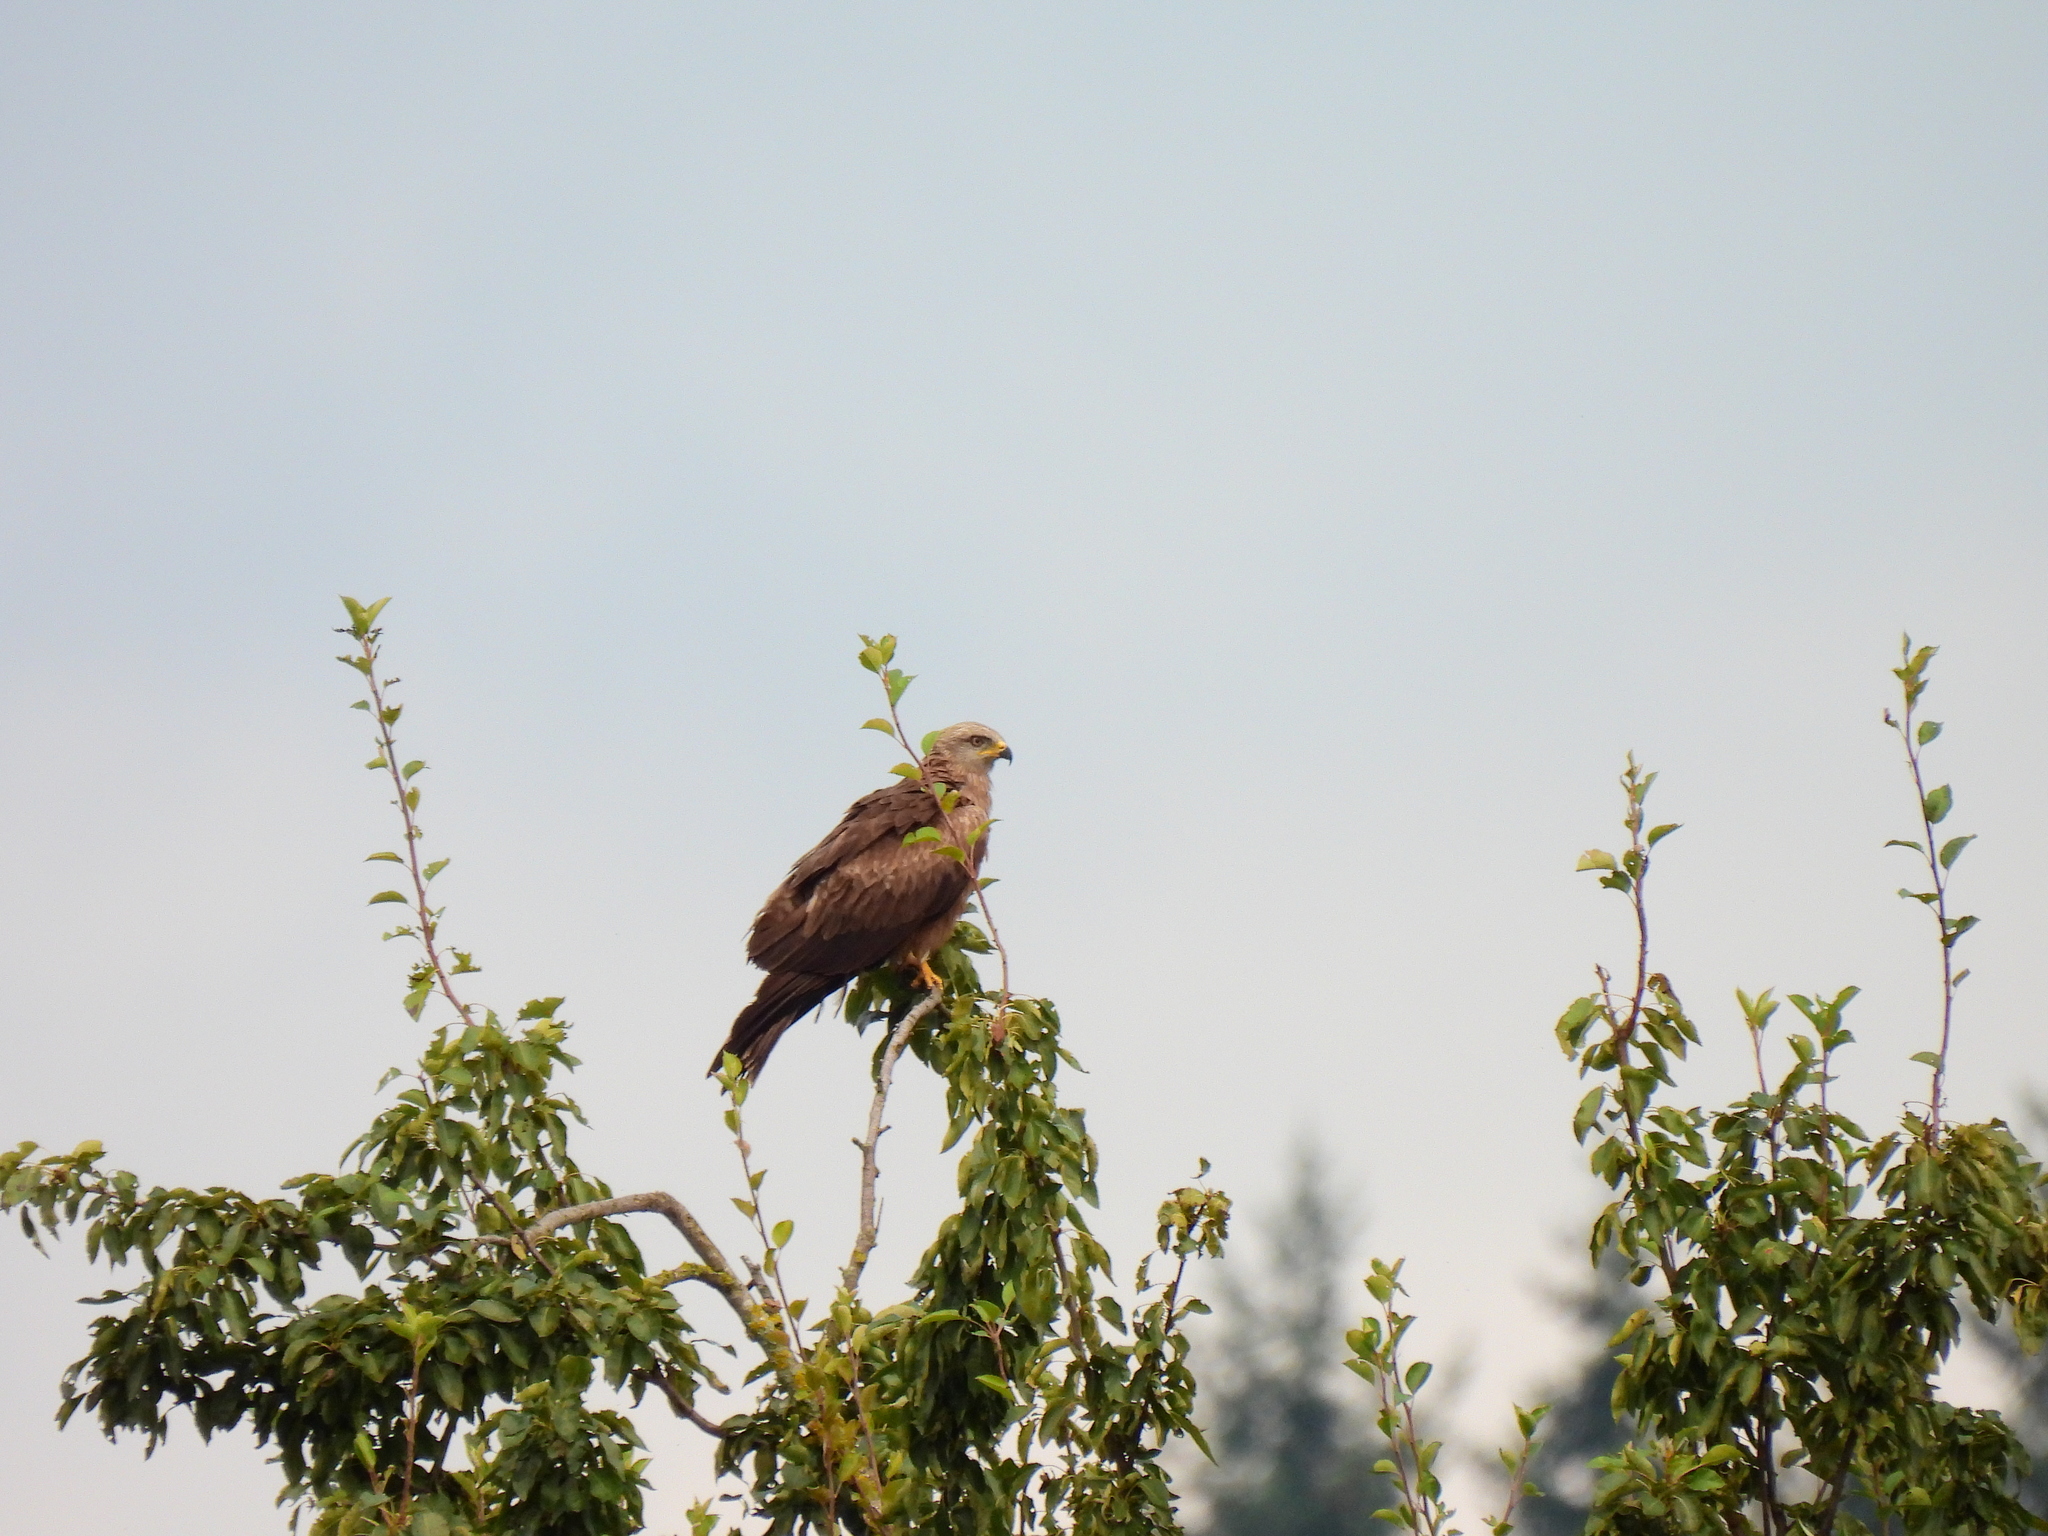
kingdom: Animalia
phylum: Chordata
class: Aves
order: Accipitriformes
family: Accipitridae
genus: Milvus
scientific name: Milvus migrans
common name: Black kite
